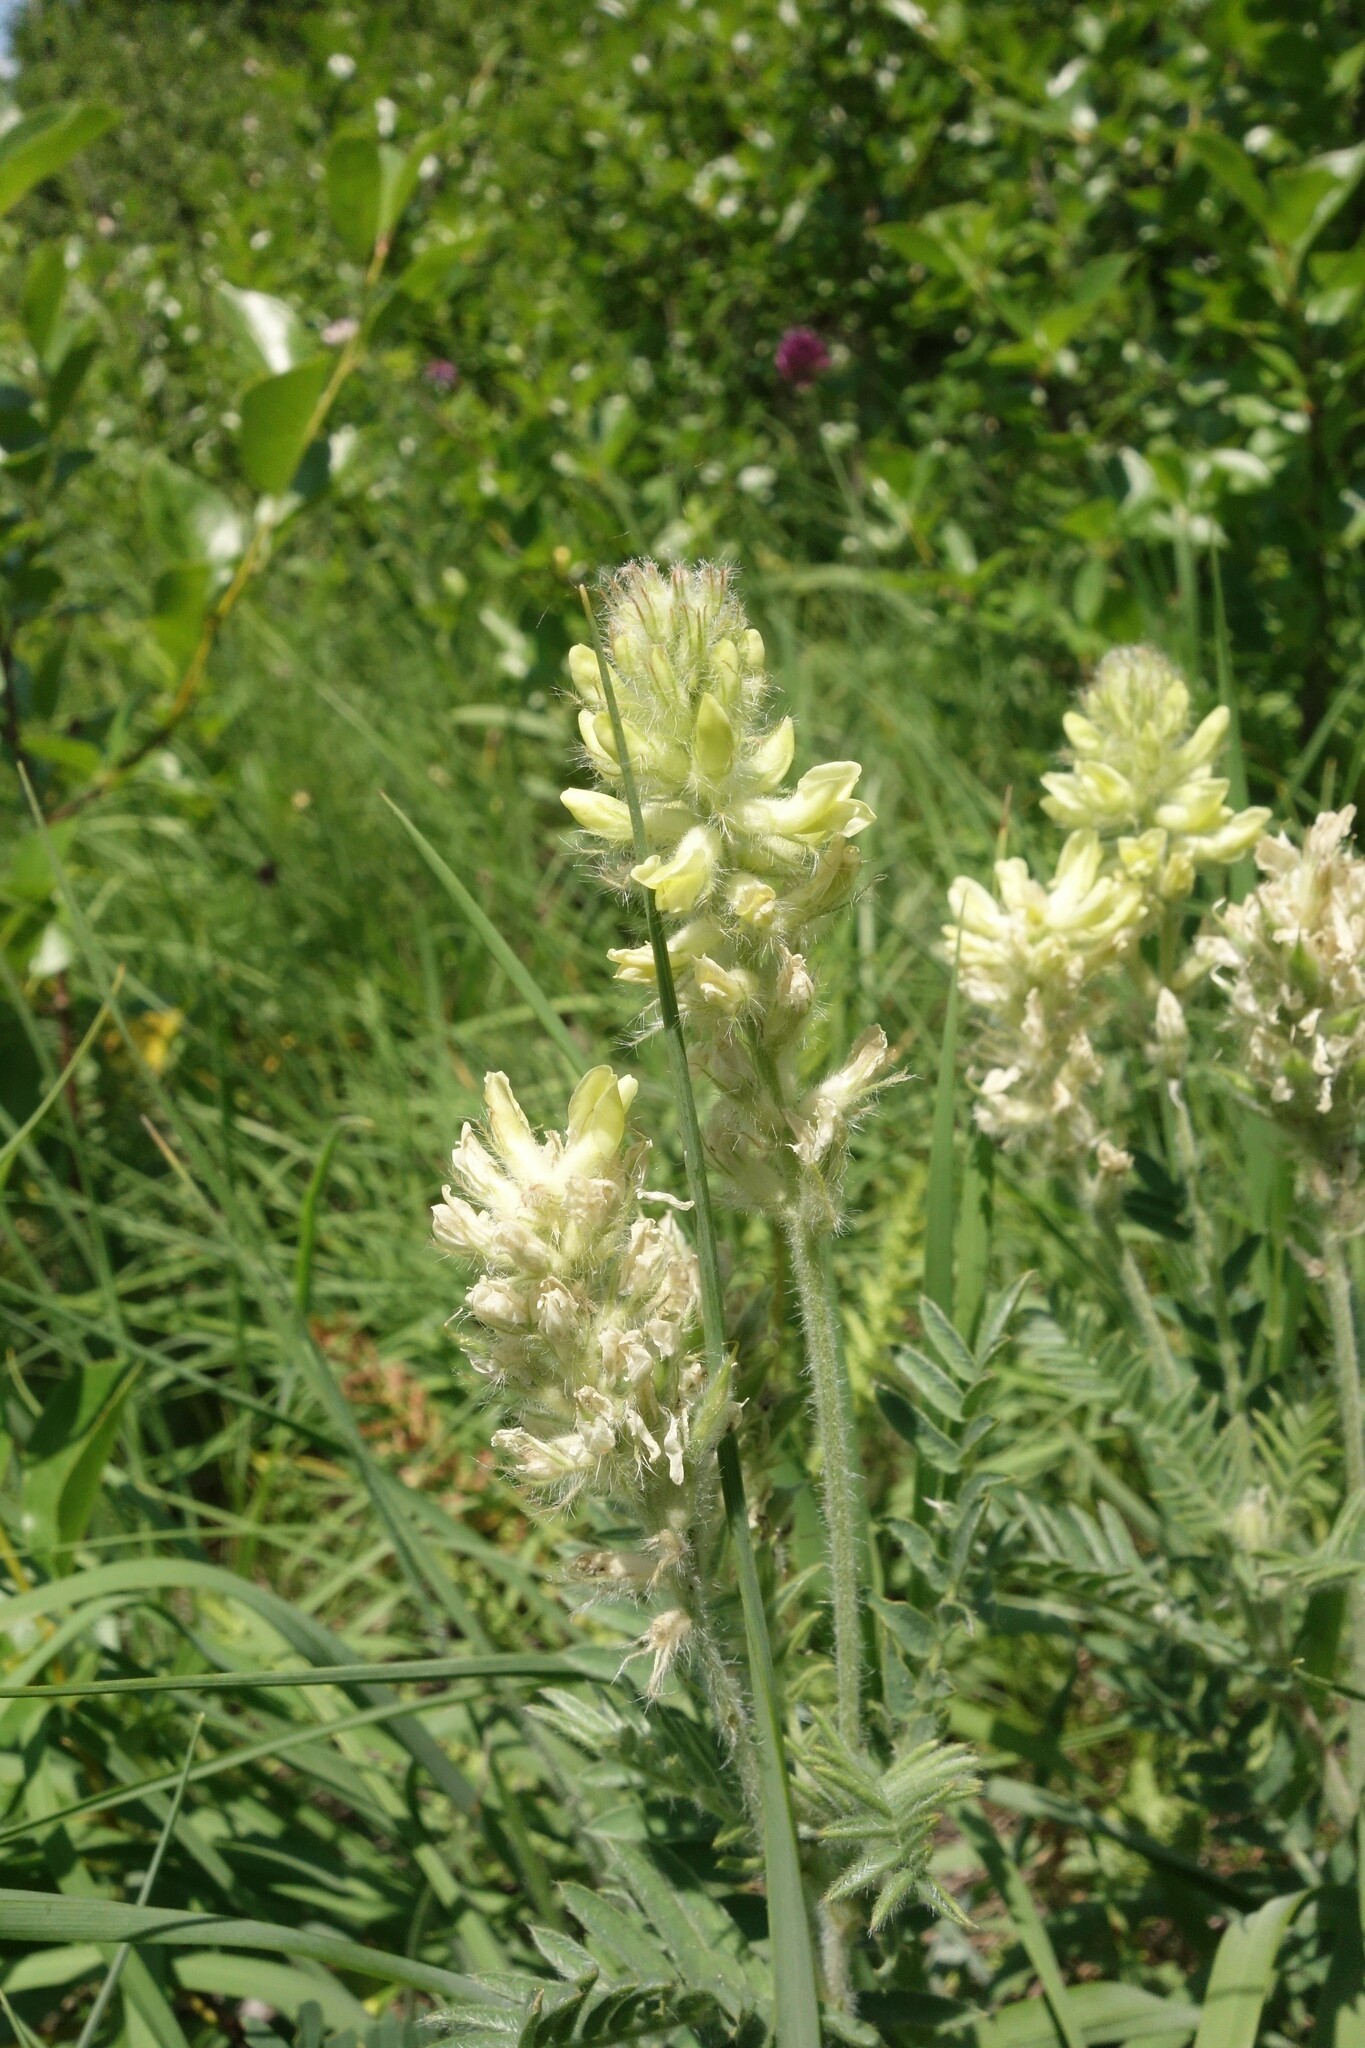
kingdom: Plantae
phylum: Tracheophyta
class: Magnoliopsida
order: Fabales
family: Fabaceae
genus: Oxytropis
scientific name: Oxytropis pilosa
